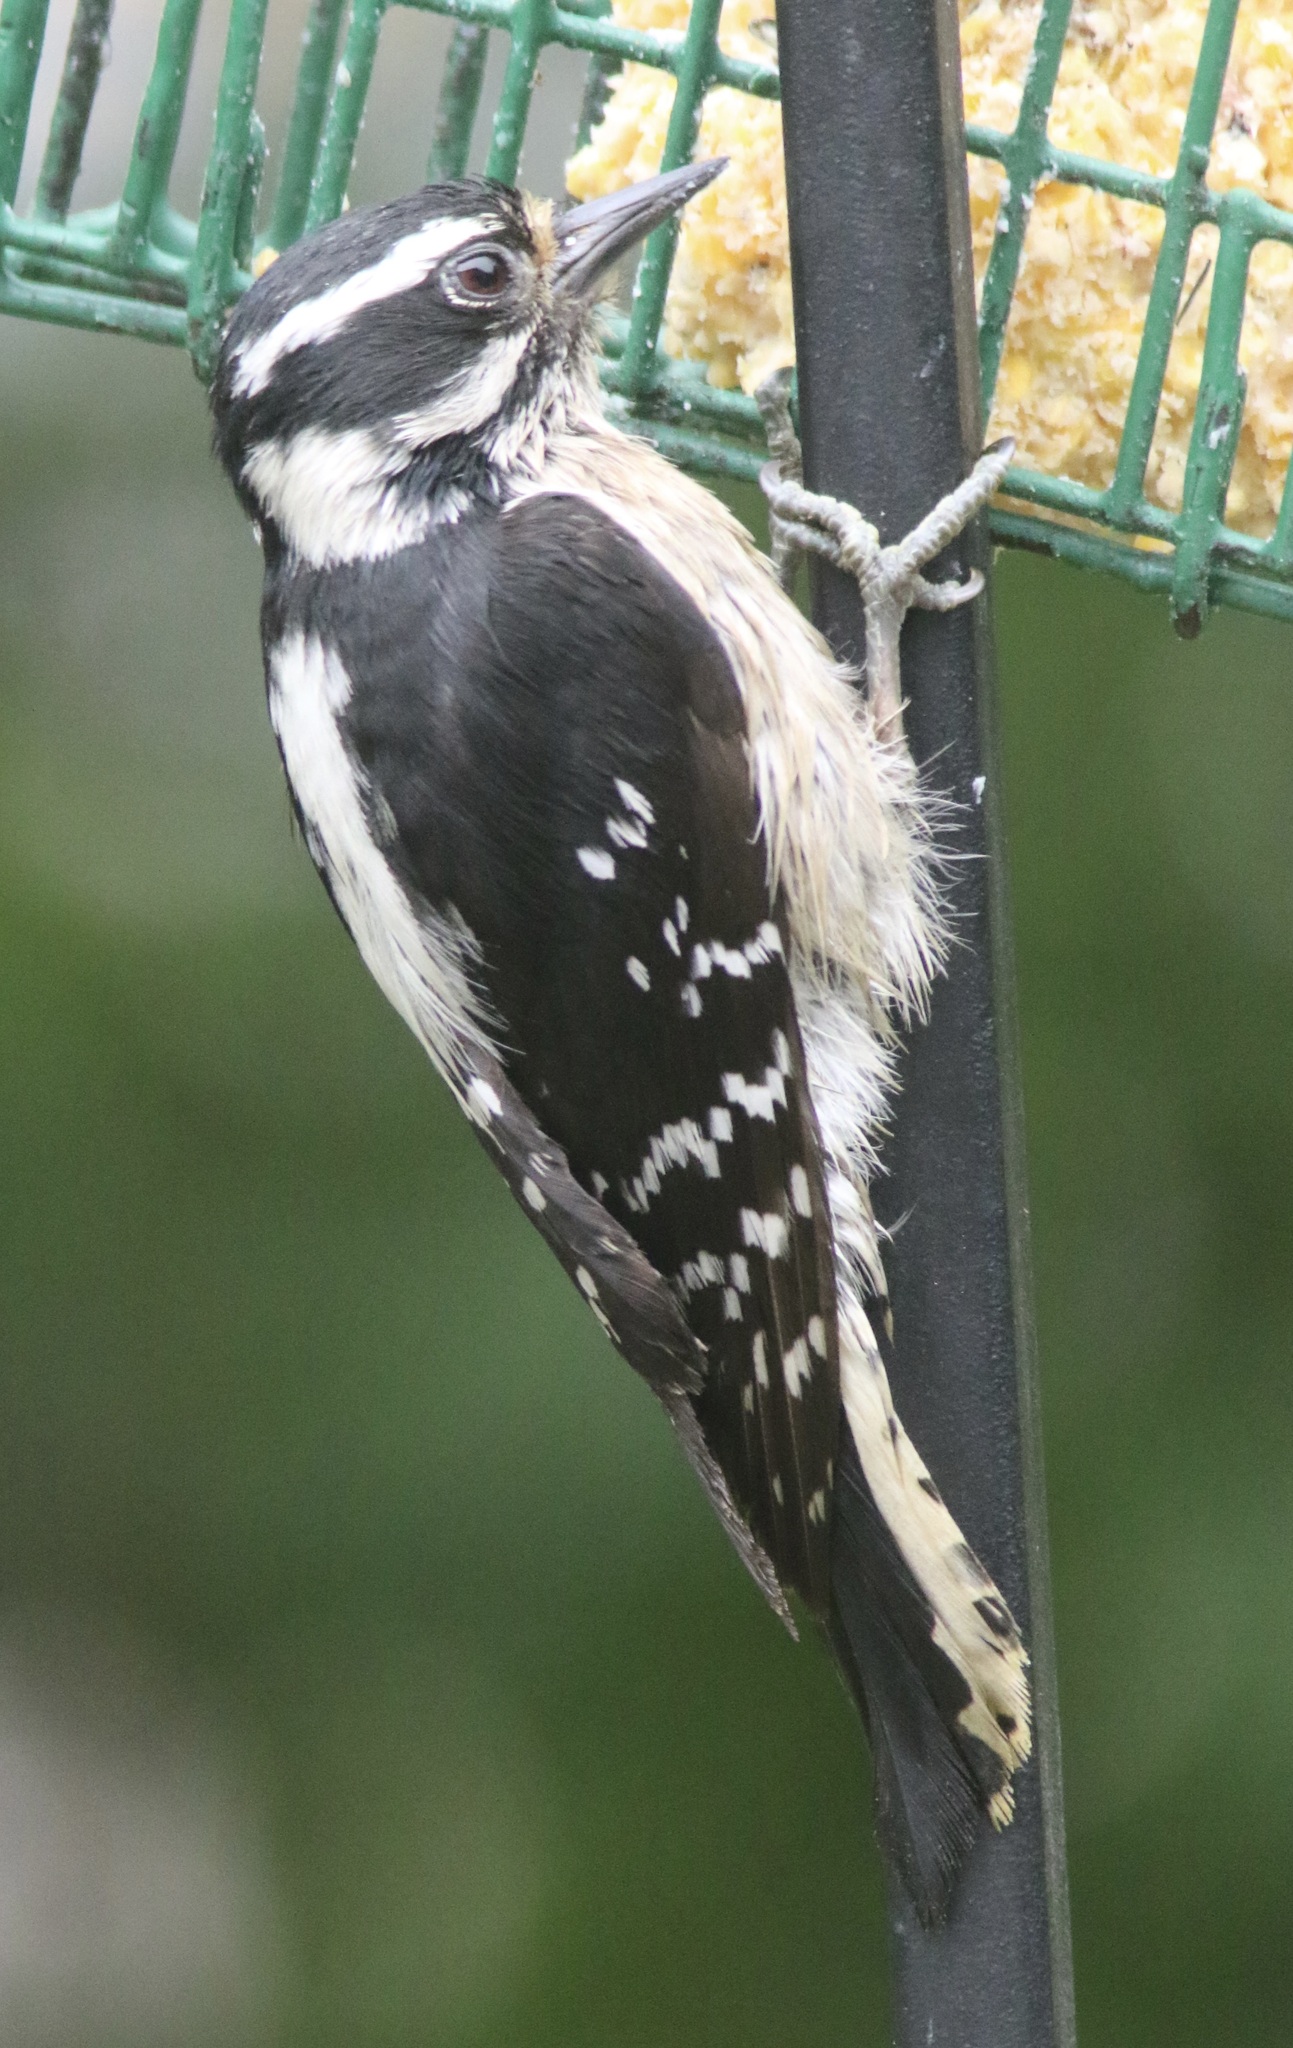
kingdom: Animalia
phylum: Chordata
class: Aves
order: Piciformes
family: Picidae
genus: Dryobates
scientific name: Dryobates pubescens
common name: Downy woodpecker
